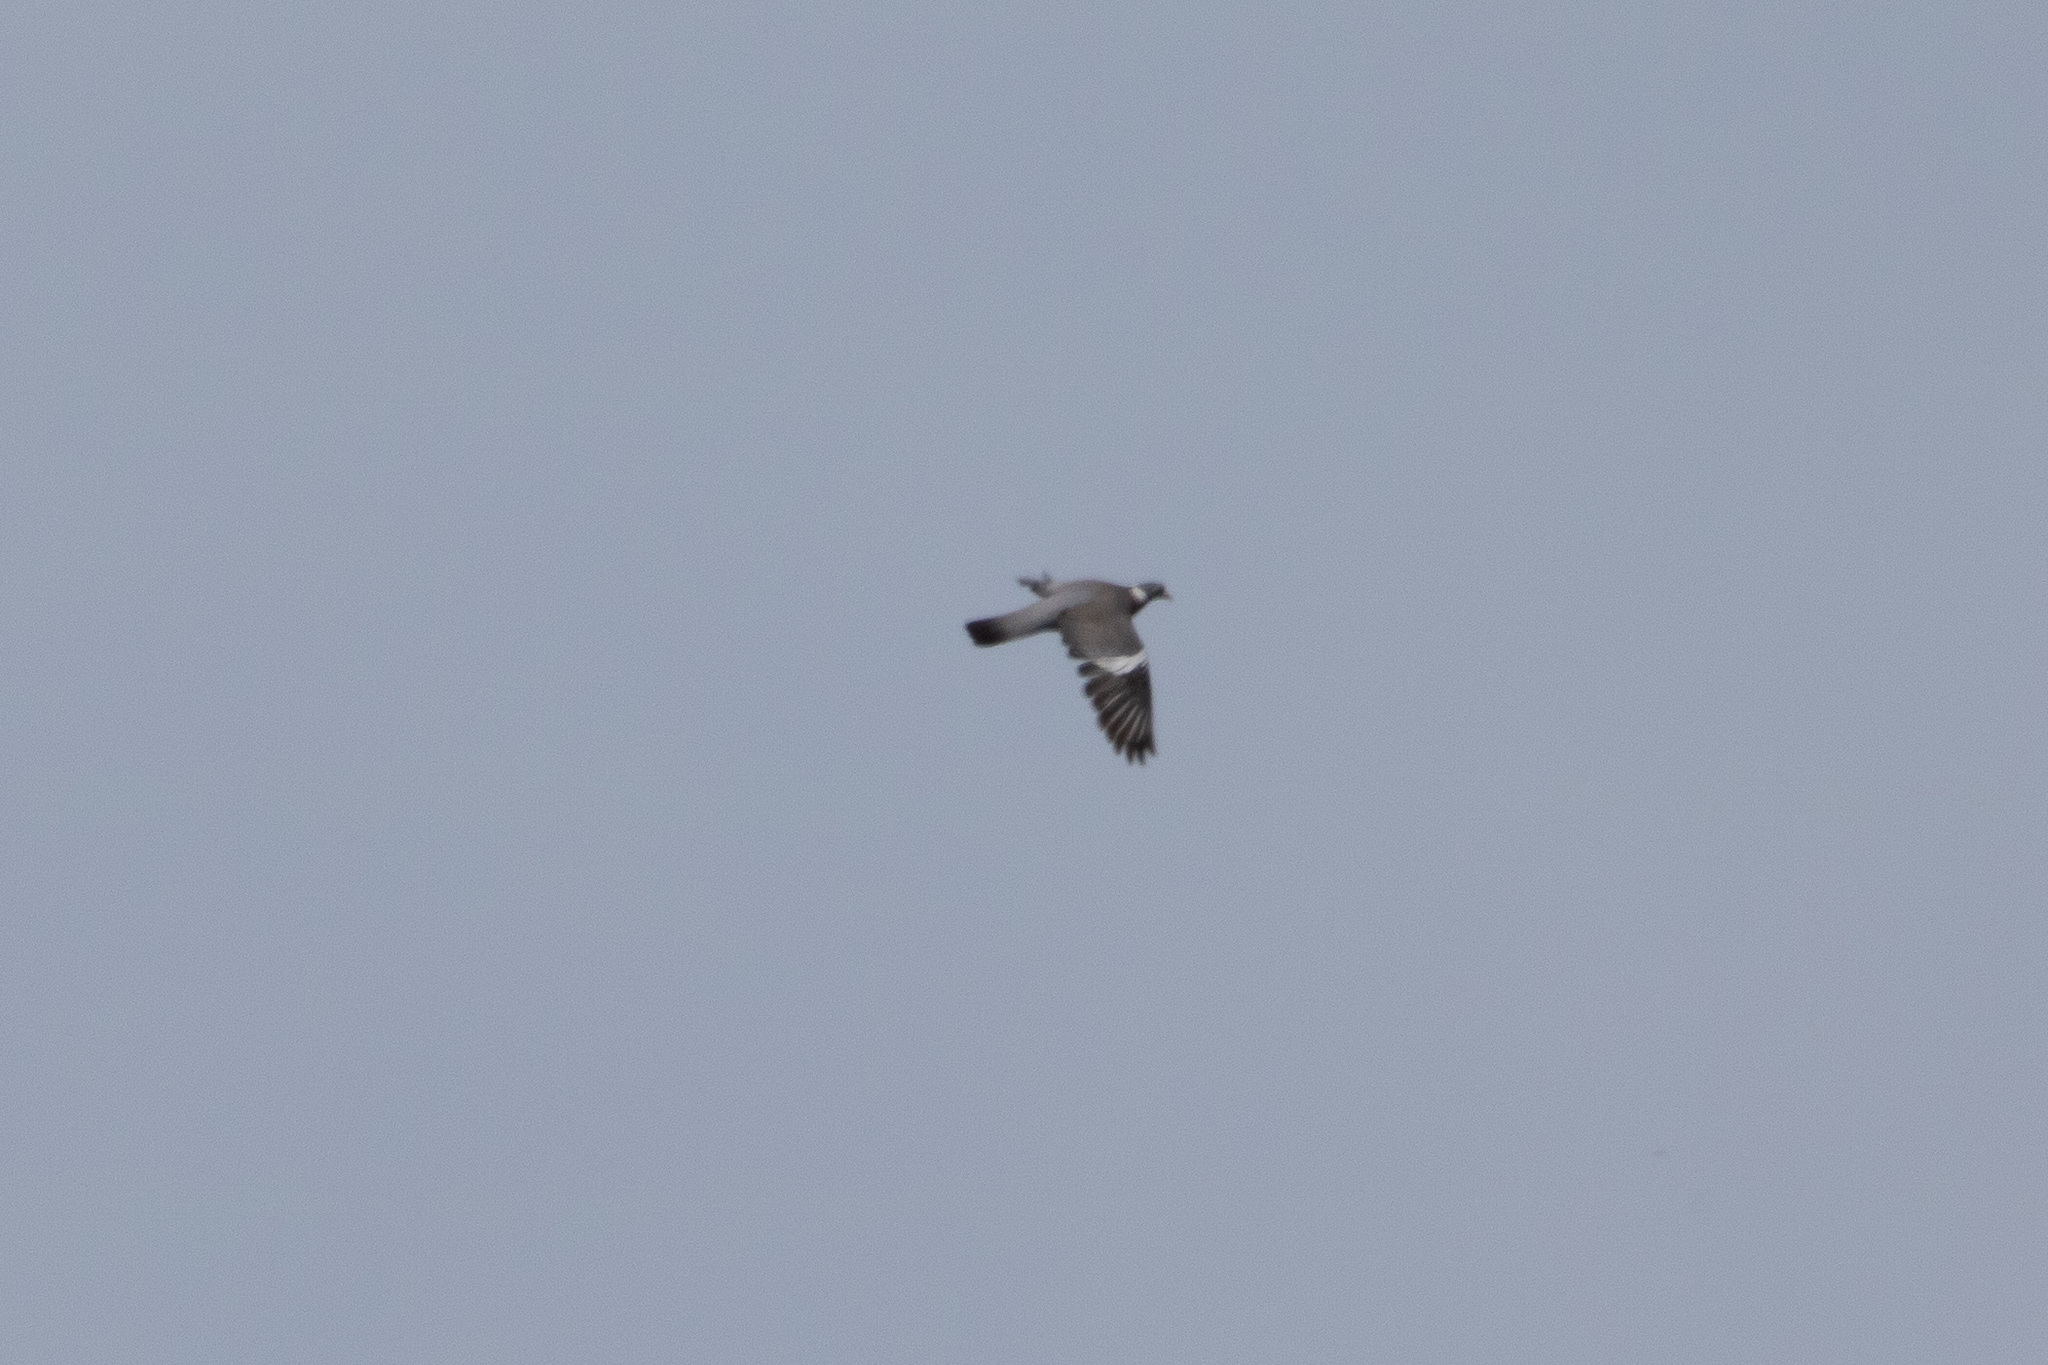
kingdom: Animalia
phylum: Chordata
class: Aves
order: Columbiformes
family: Columbidae
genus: Columba
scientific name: Columba palumbus
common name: Common wood pigeon
